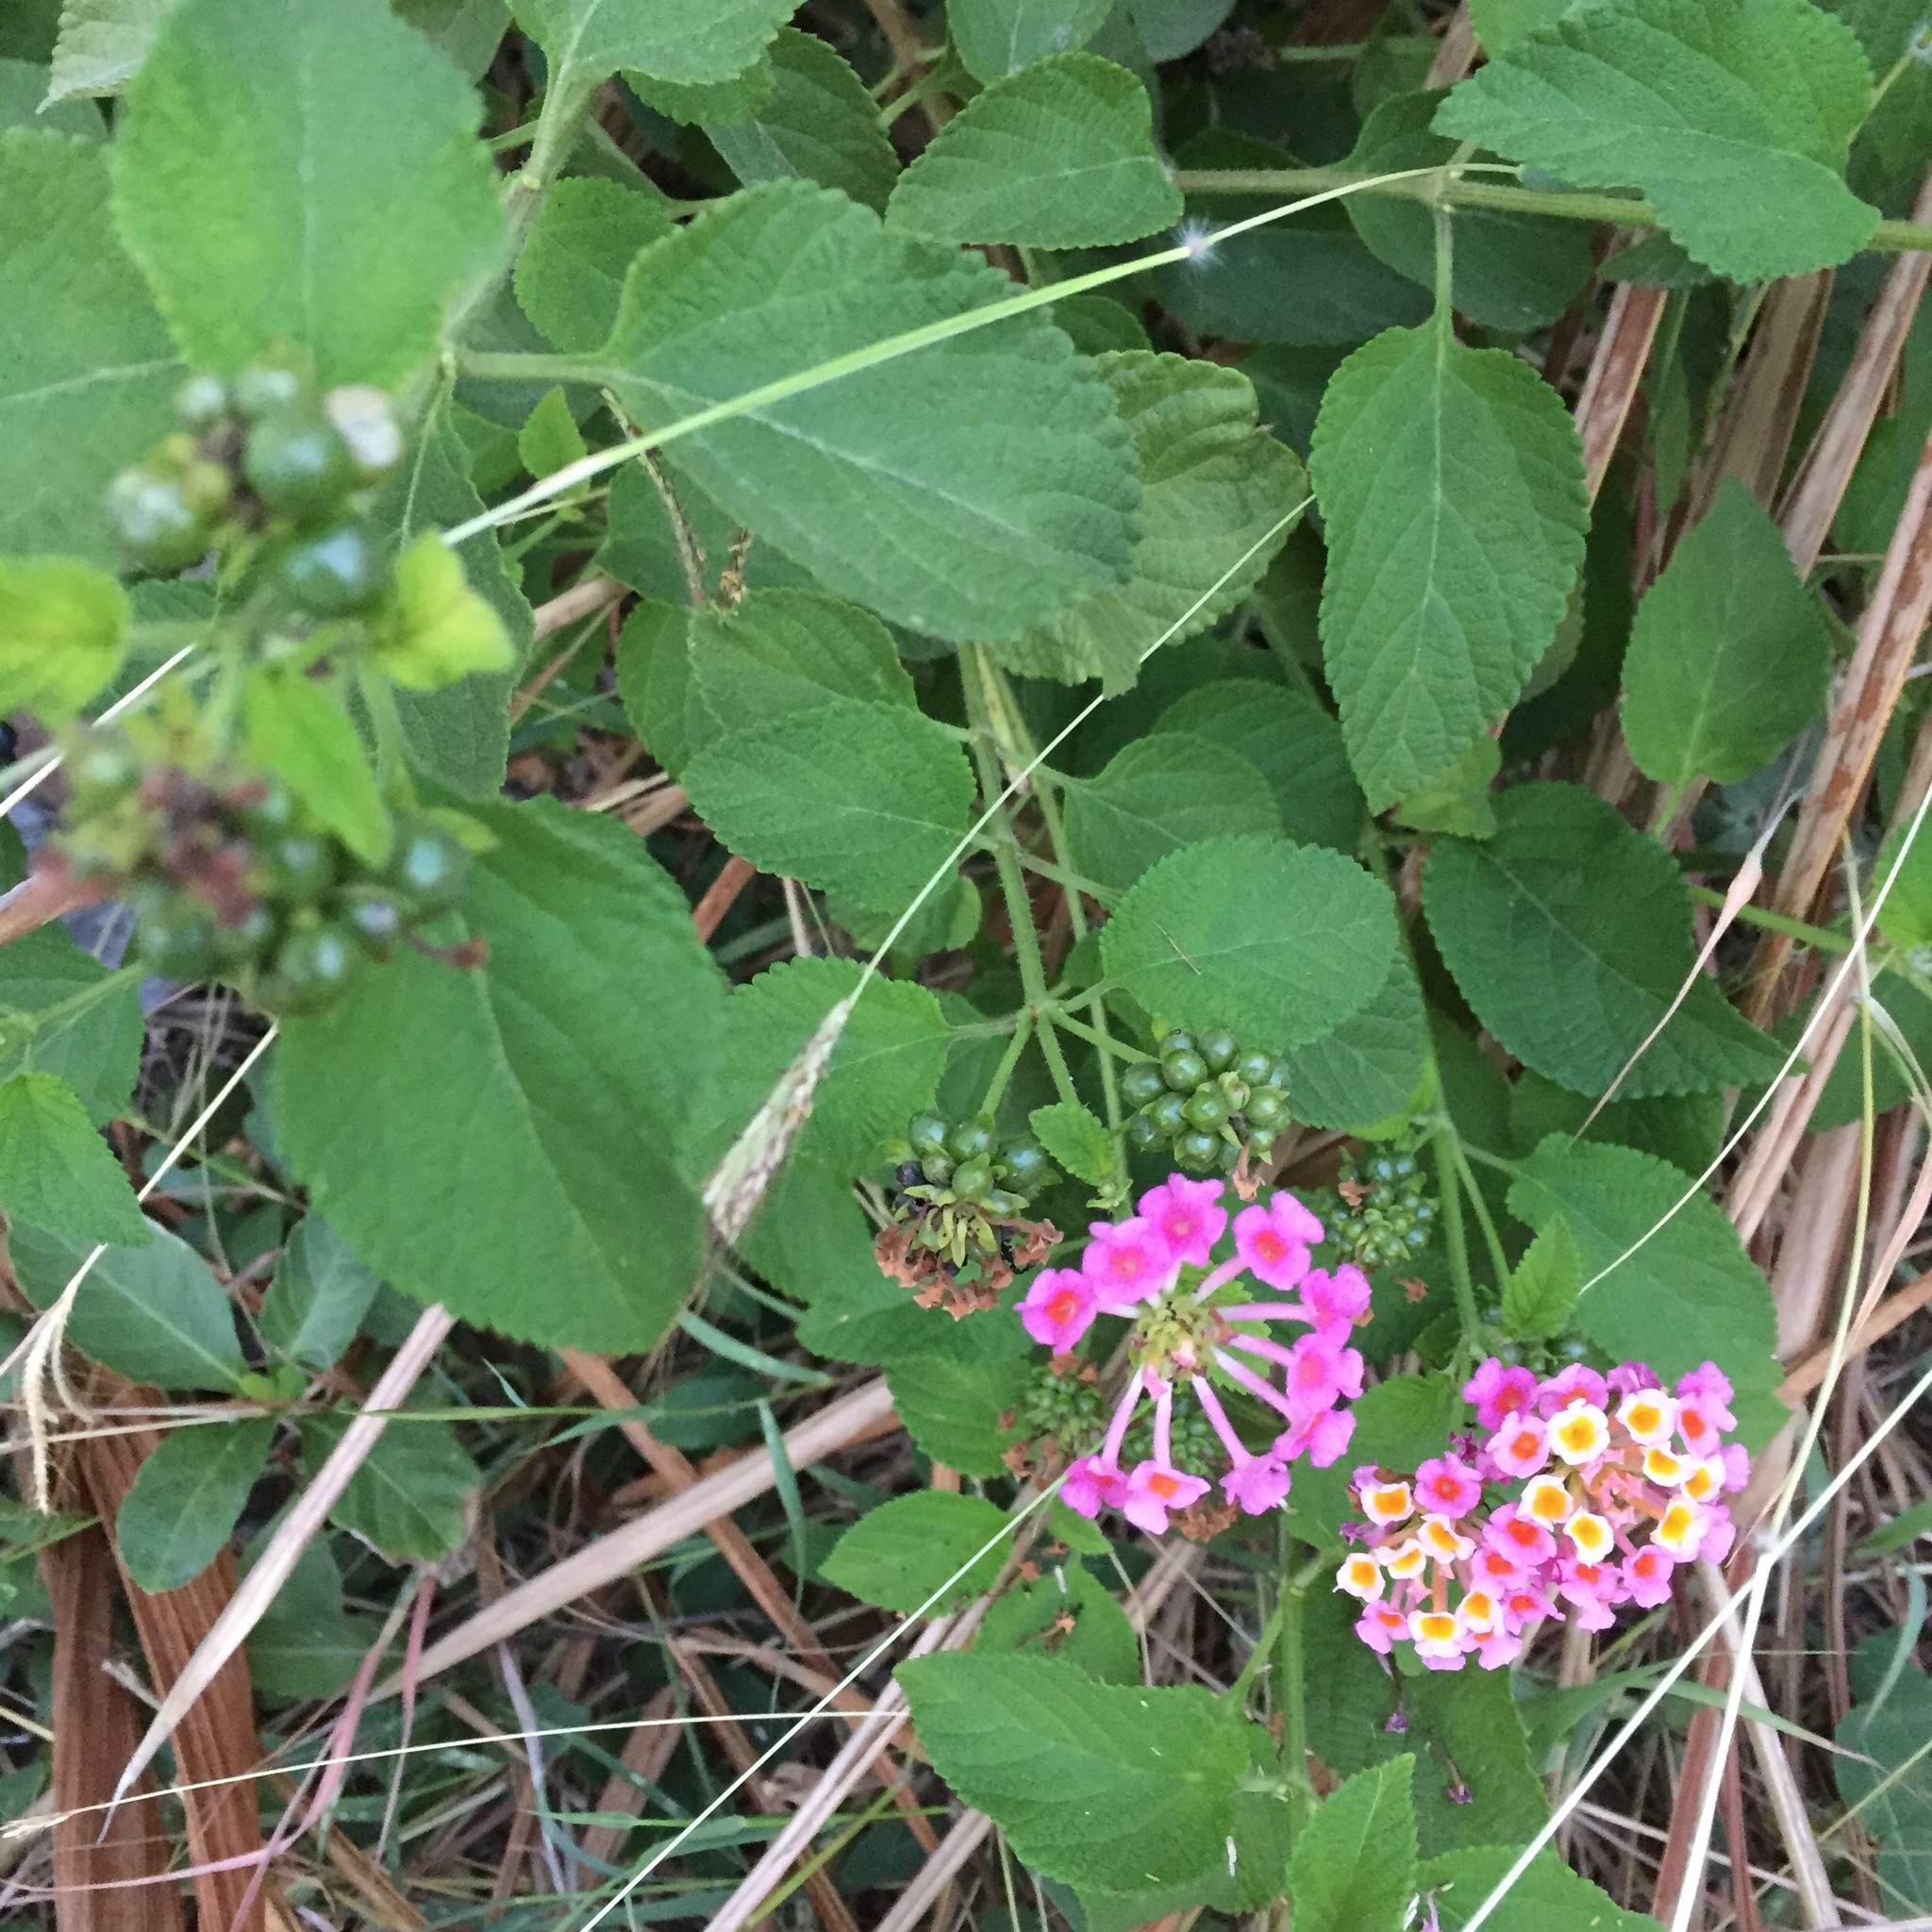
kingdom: Plantae
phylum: Tracheophyta
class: Magnoliopsida
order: Lamiales
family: Verbenaceae
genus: Lantana
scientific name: Lantana camara
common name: Lantana
